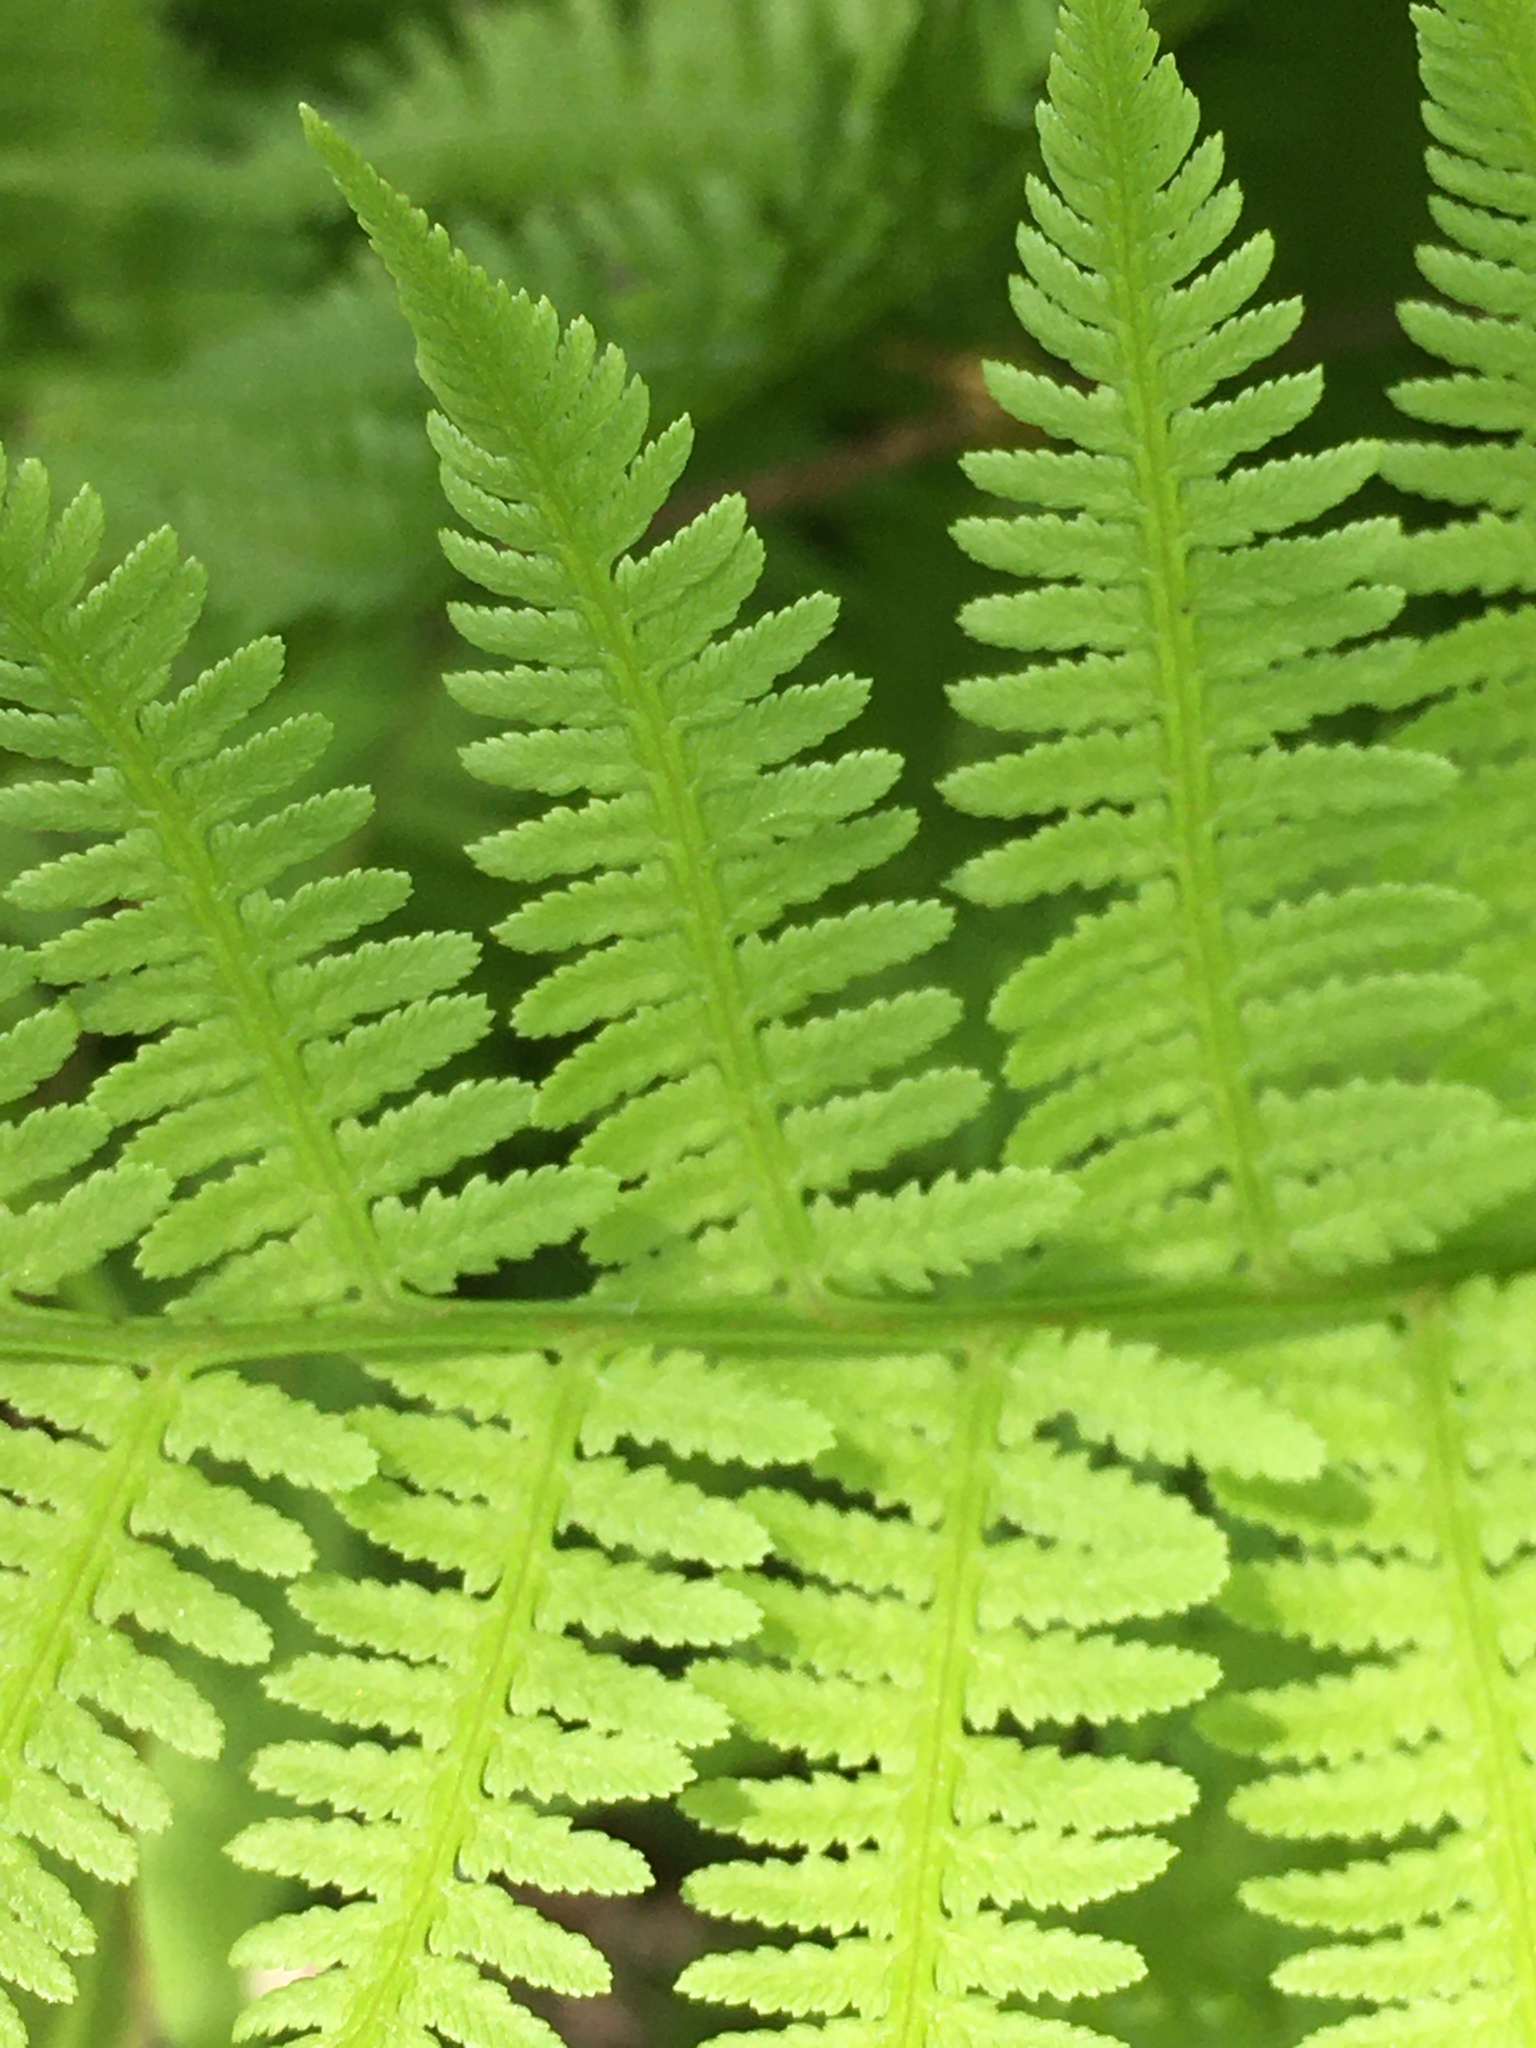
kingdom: Plantae
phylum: Tracheophyta
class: Polypodiopsida
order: Polypodiales
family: Athyriaceae
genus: Athyrium
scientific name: Athyrium asplenioides
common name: Southern lady fern
